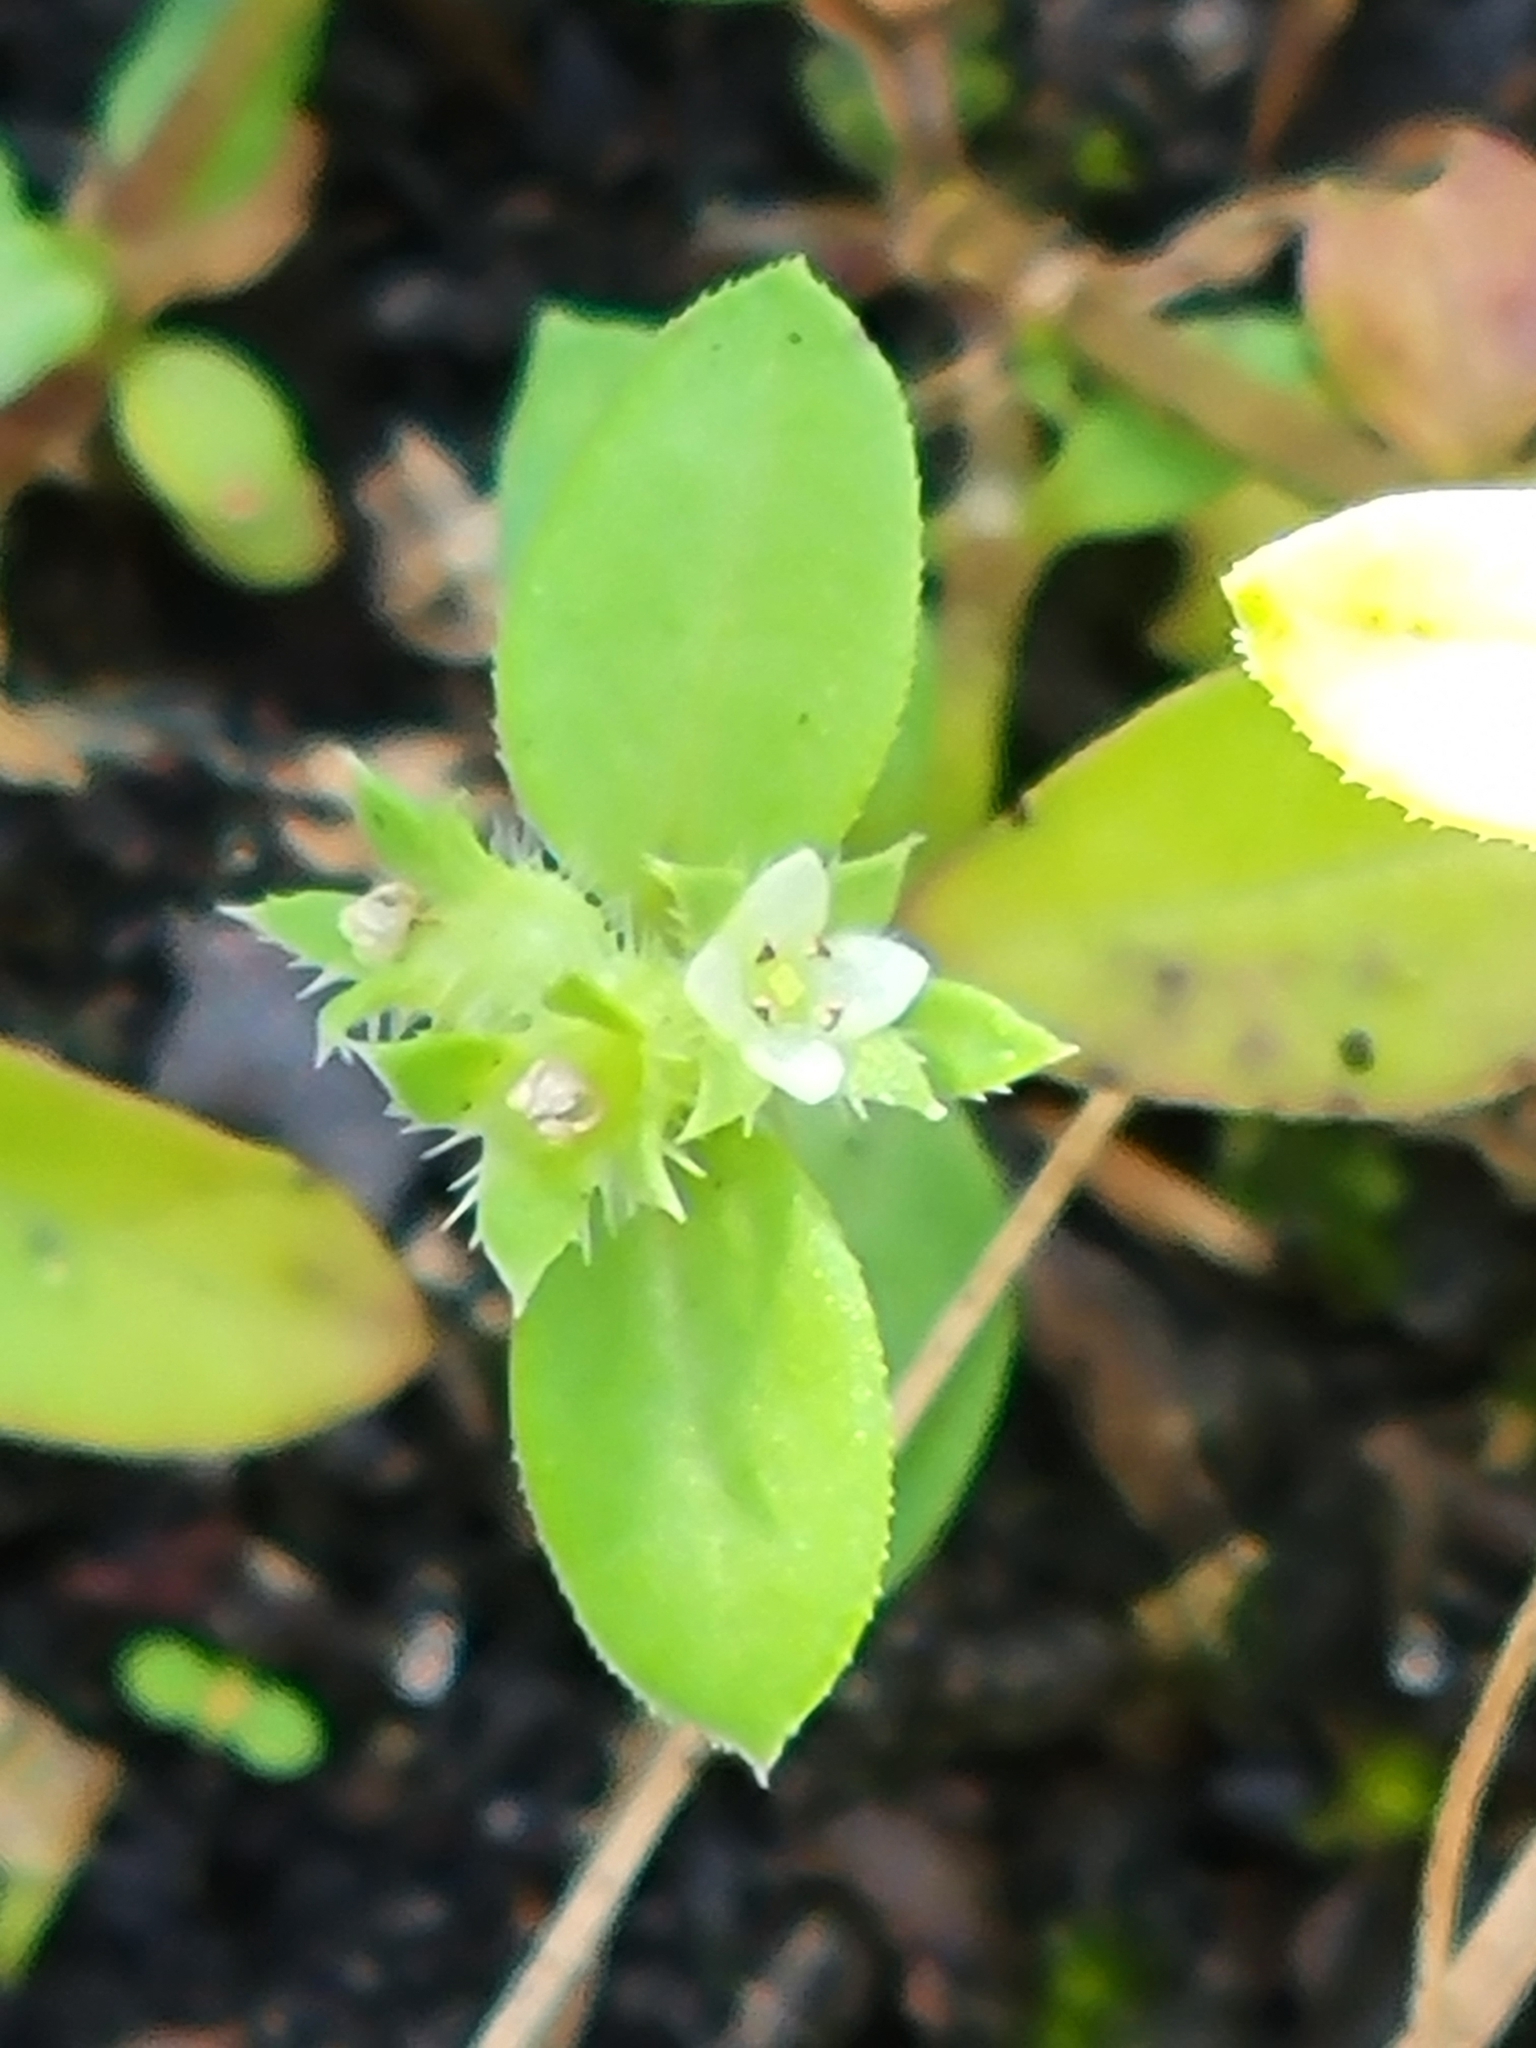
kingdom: Plantae
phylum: Tracheophyta
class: Magnoliopsida
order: Gentianales
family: Rubiaceae
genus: Edrastima
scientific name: Edrastima uniflora
